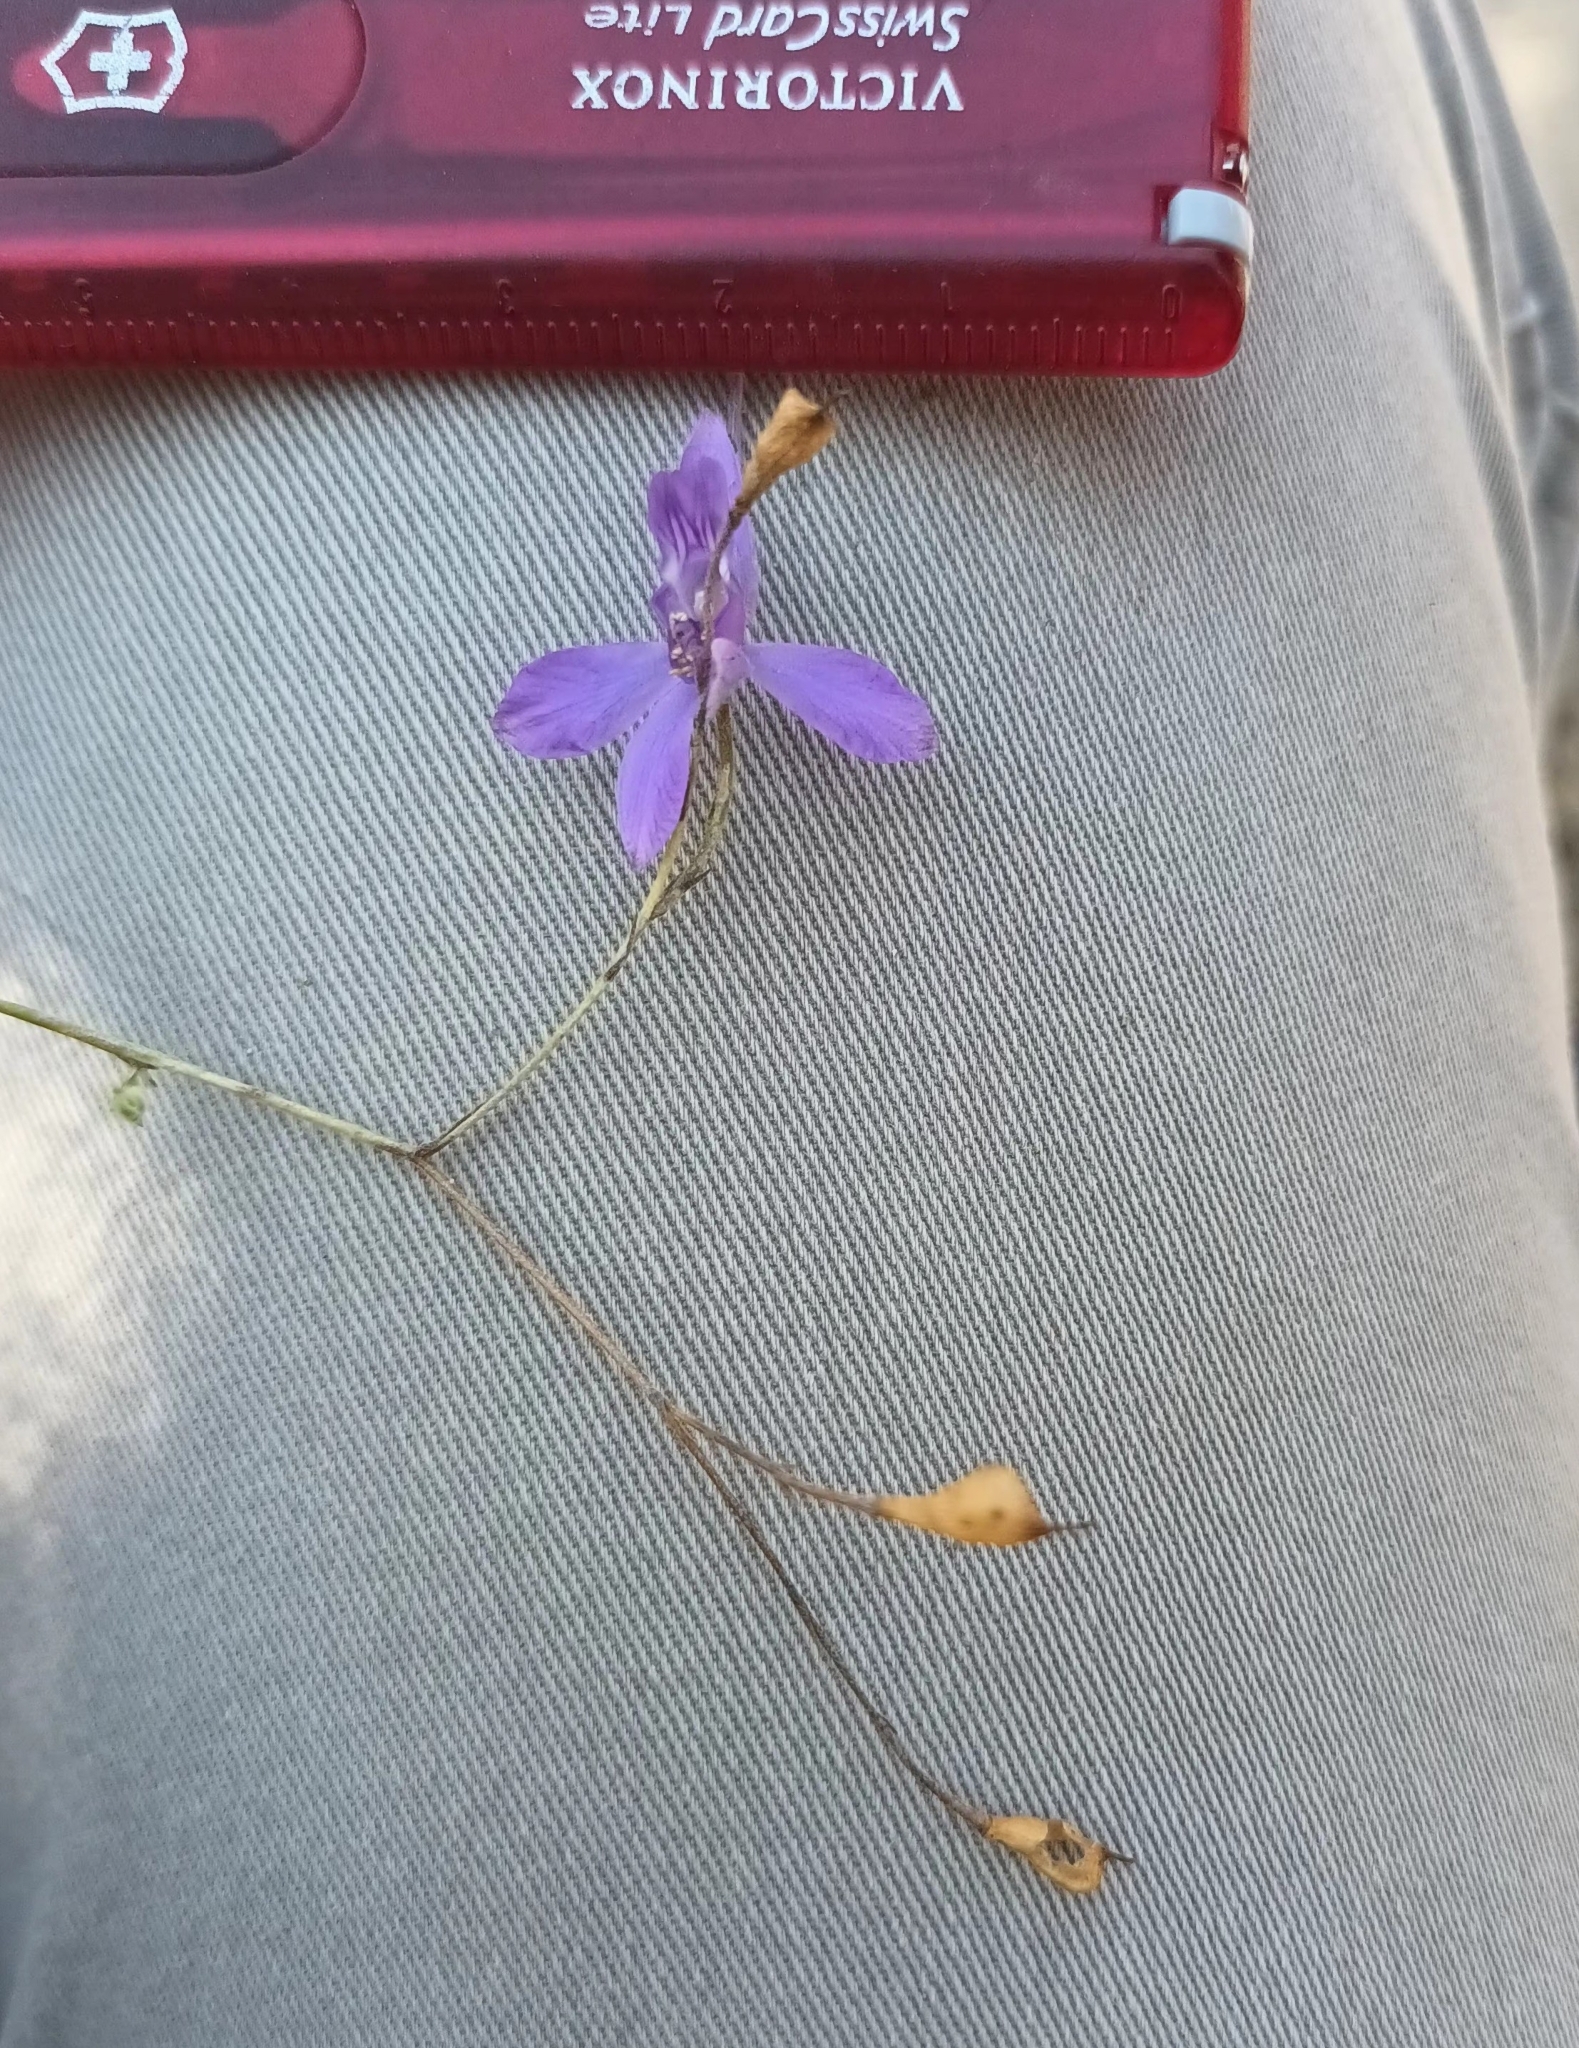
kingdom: Plantae
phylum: Tracheophyta
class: Magnoliopsida
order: Ranunculales
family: Ranunculaceae
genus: Delphinium
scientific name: Delphinium consolida
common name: Branching larkspur
